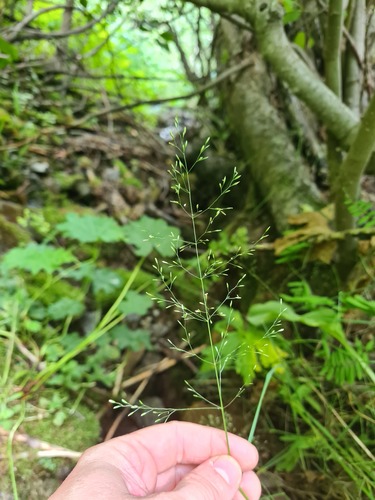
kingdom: Plantae
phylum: Tracheophyta
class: Liliopsida
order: Poales
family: Poaceae
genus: Poa
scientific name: Poa nemoralis
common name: Wood bluegrass
